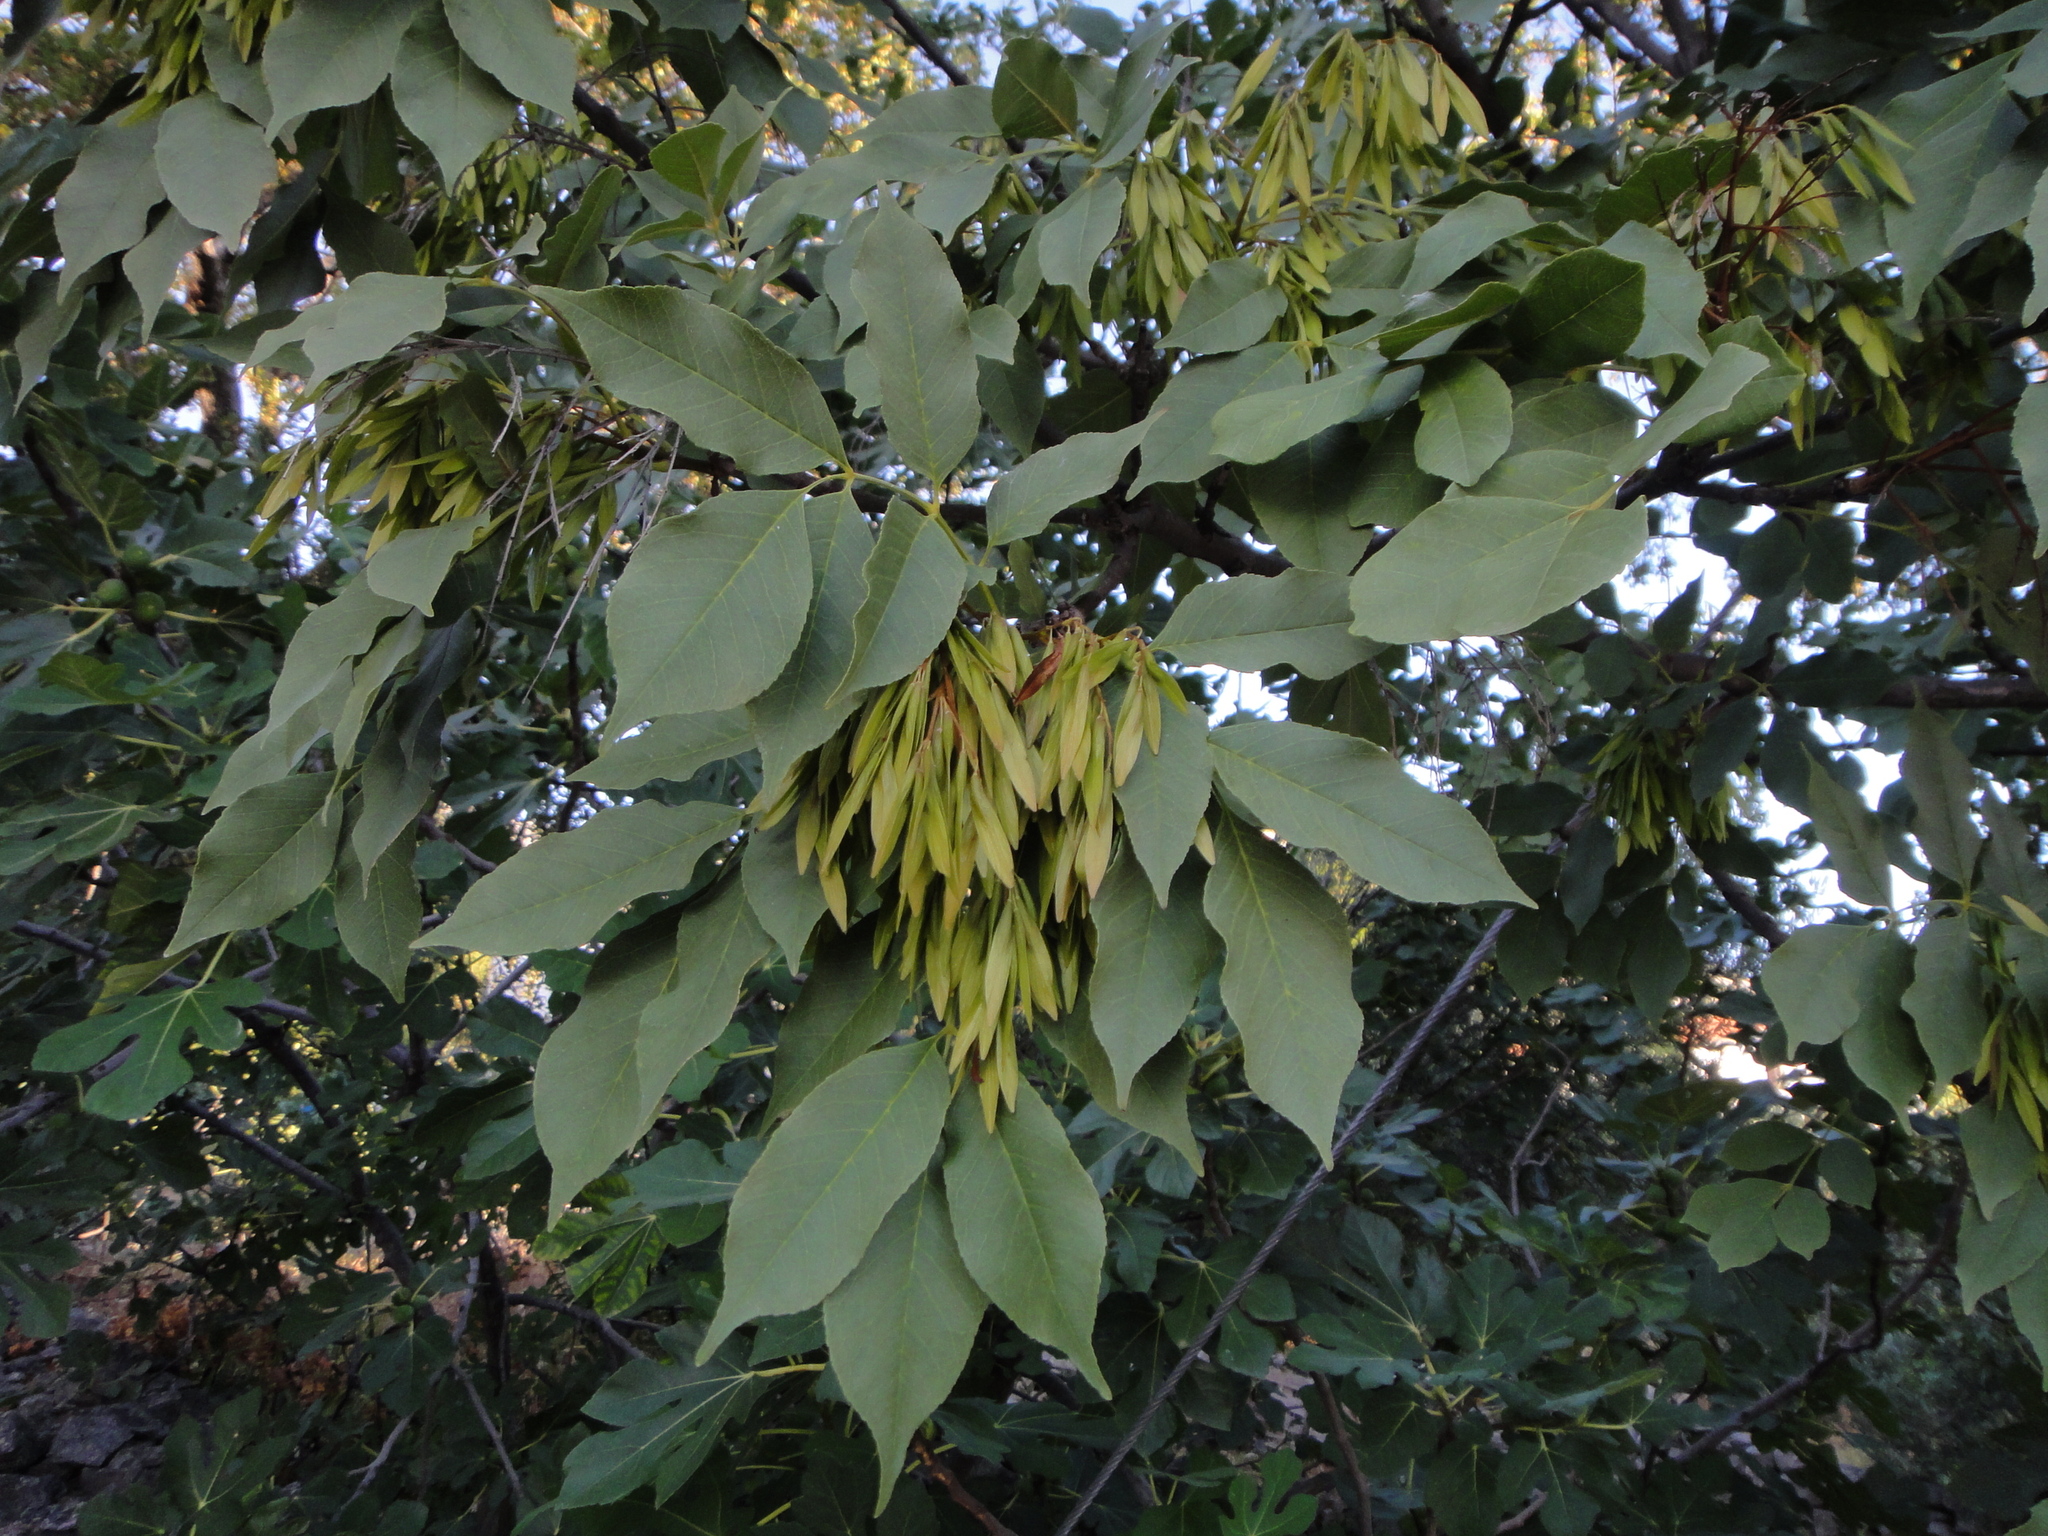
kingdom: Plantae
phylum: Tracheophyta
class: Magnoliopsida
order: Lamiales
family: Oleaceae
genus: Fraxinus
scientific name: Fraxinus ornus
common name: Manna ash
